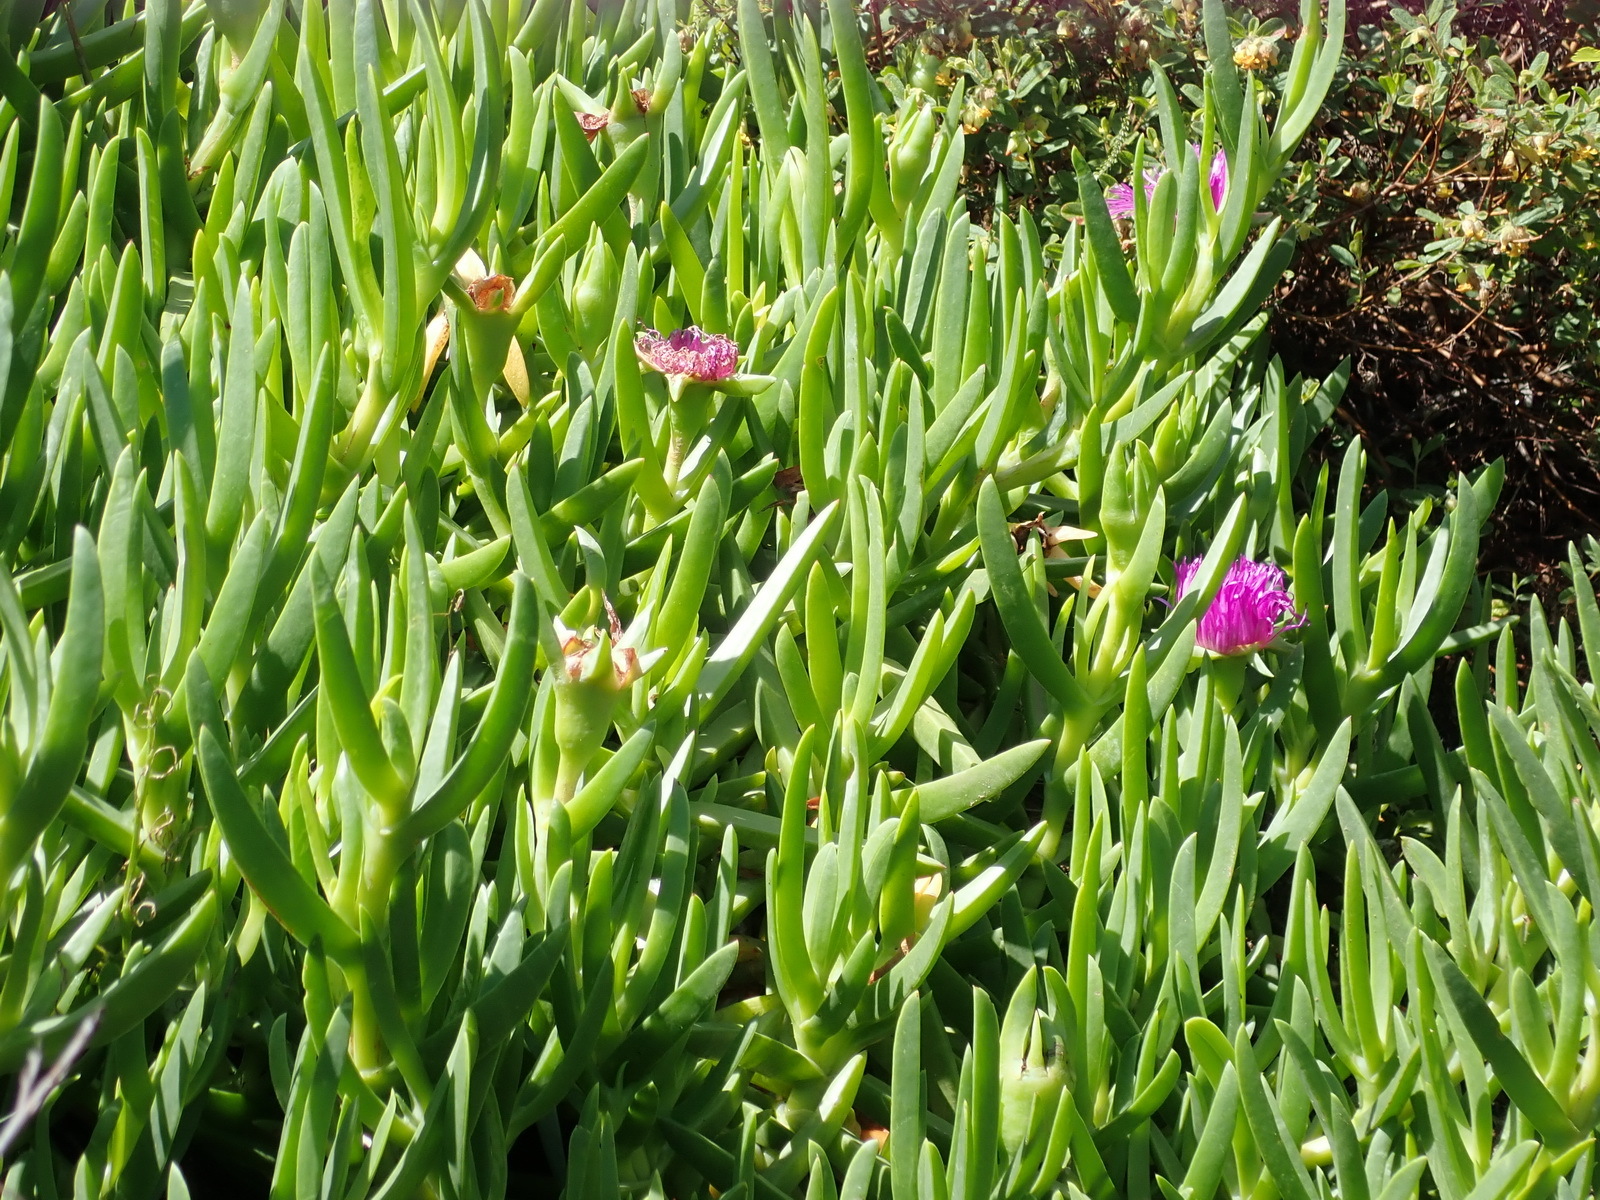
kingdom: Plantae
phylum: Tracheophyta
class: Magnoliopsida
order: Caryophyllales
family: Aizoaceae
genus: Carpobrotus
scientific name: Carpobrotus deliciosus
